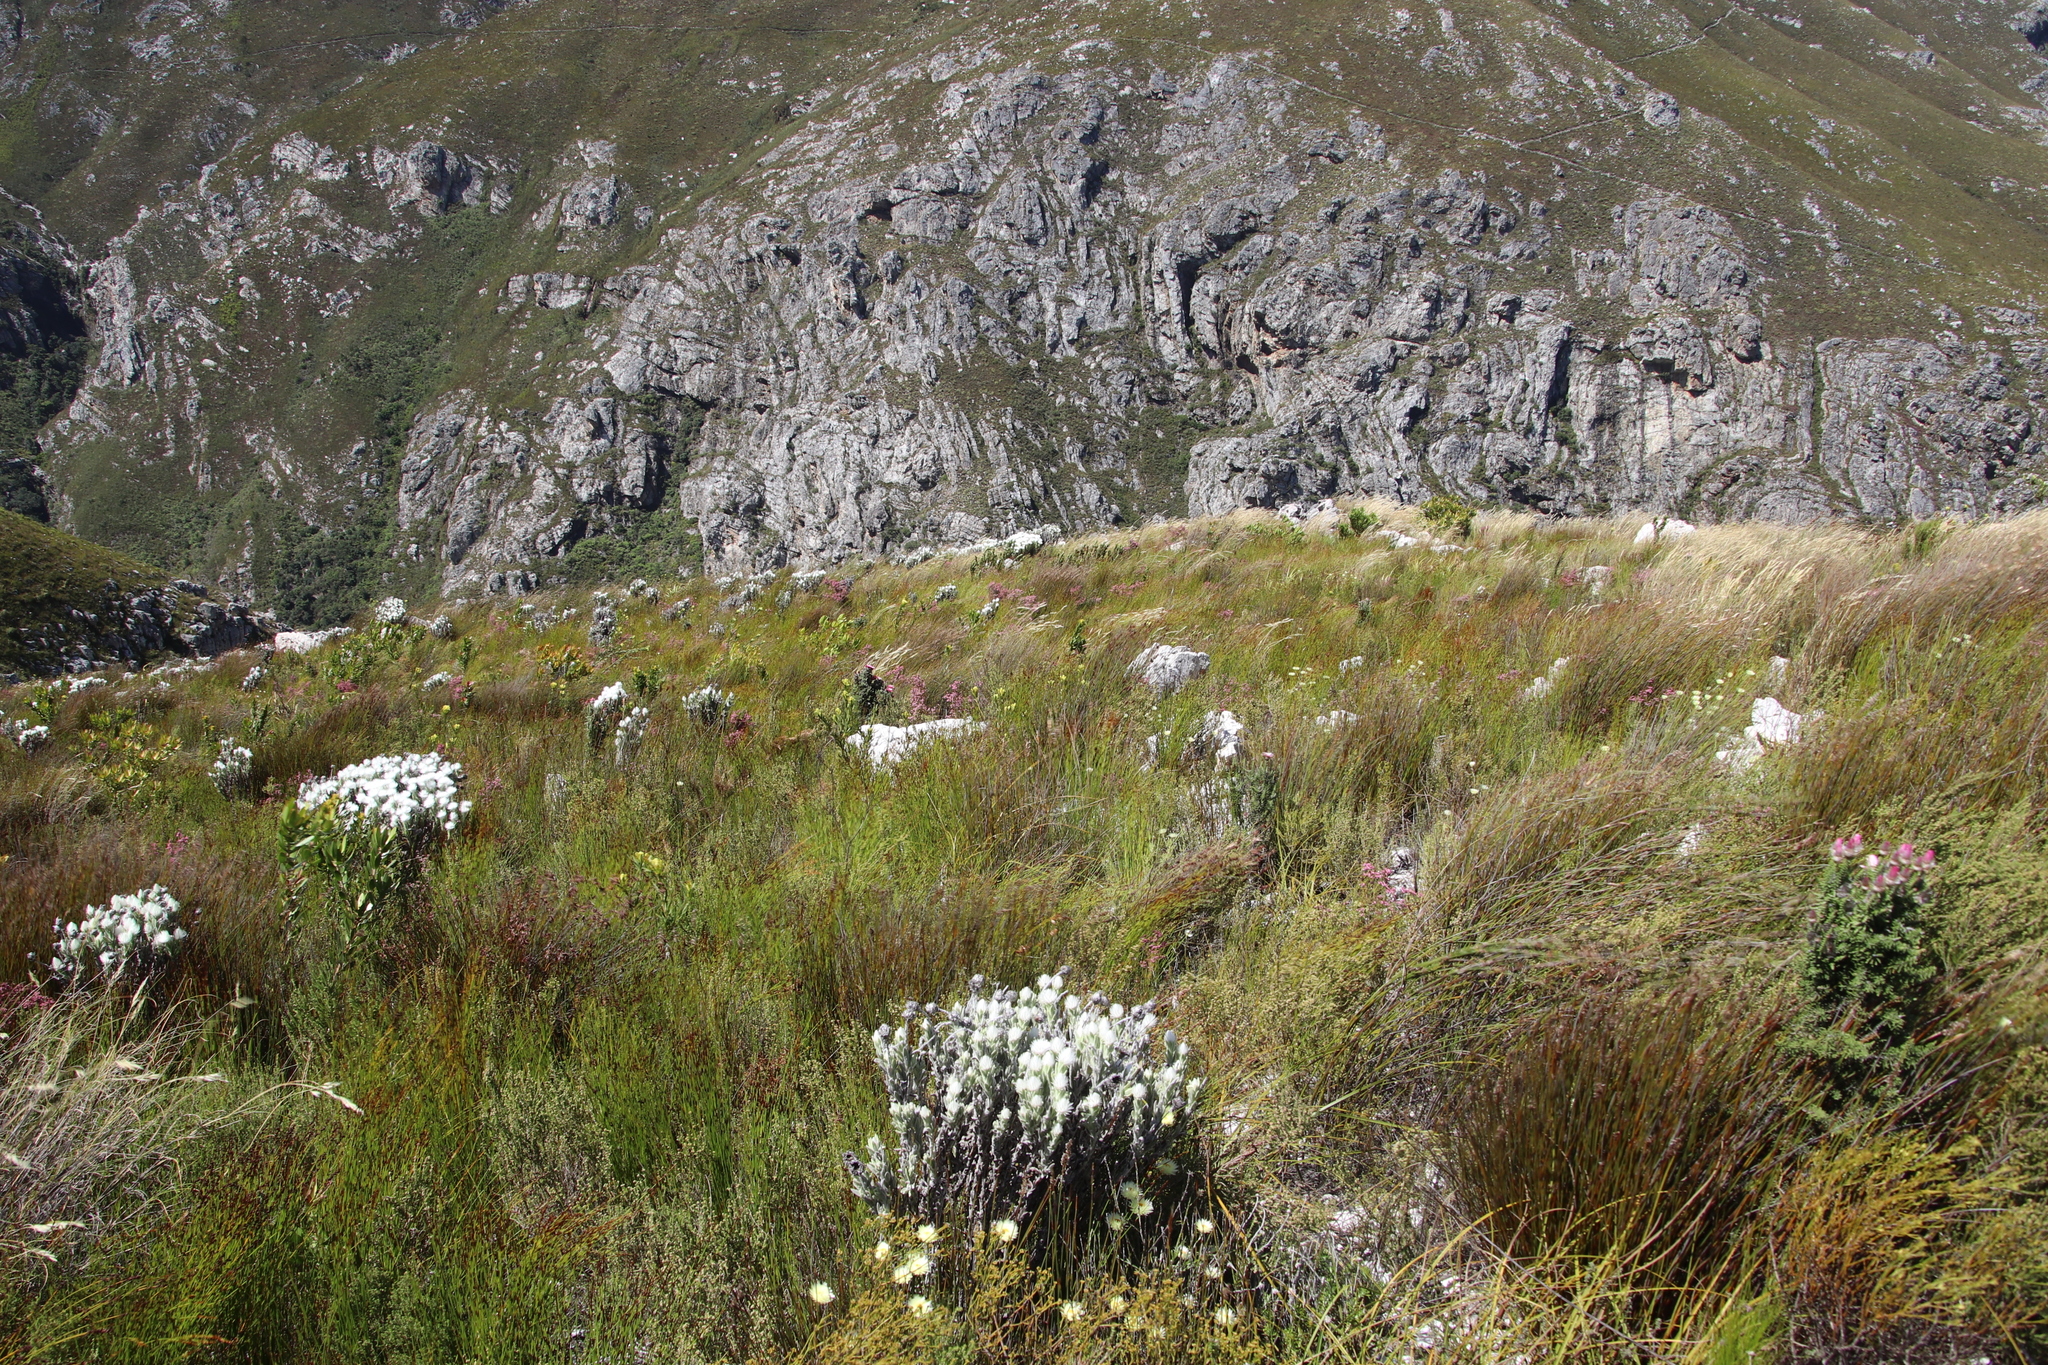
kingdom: Plantae
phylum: Tracheophyta
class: Liliopsida
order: Poales
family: Restionaceae
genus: Elegia
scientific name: Elegia hookeriana
